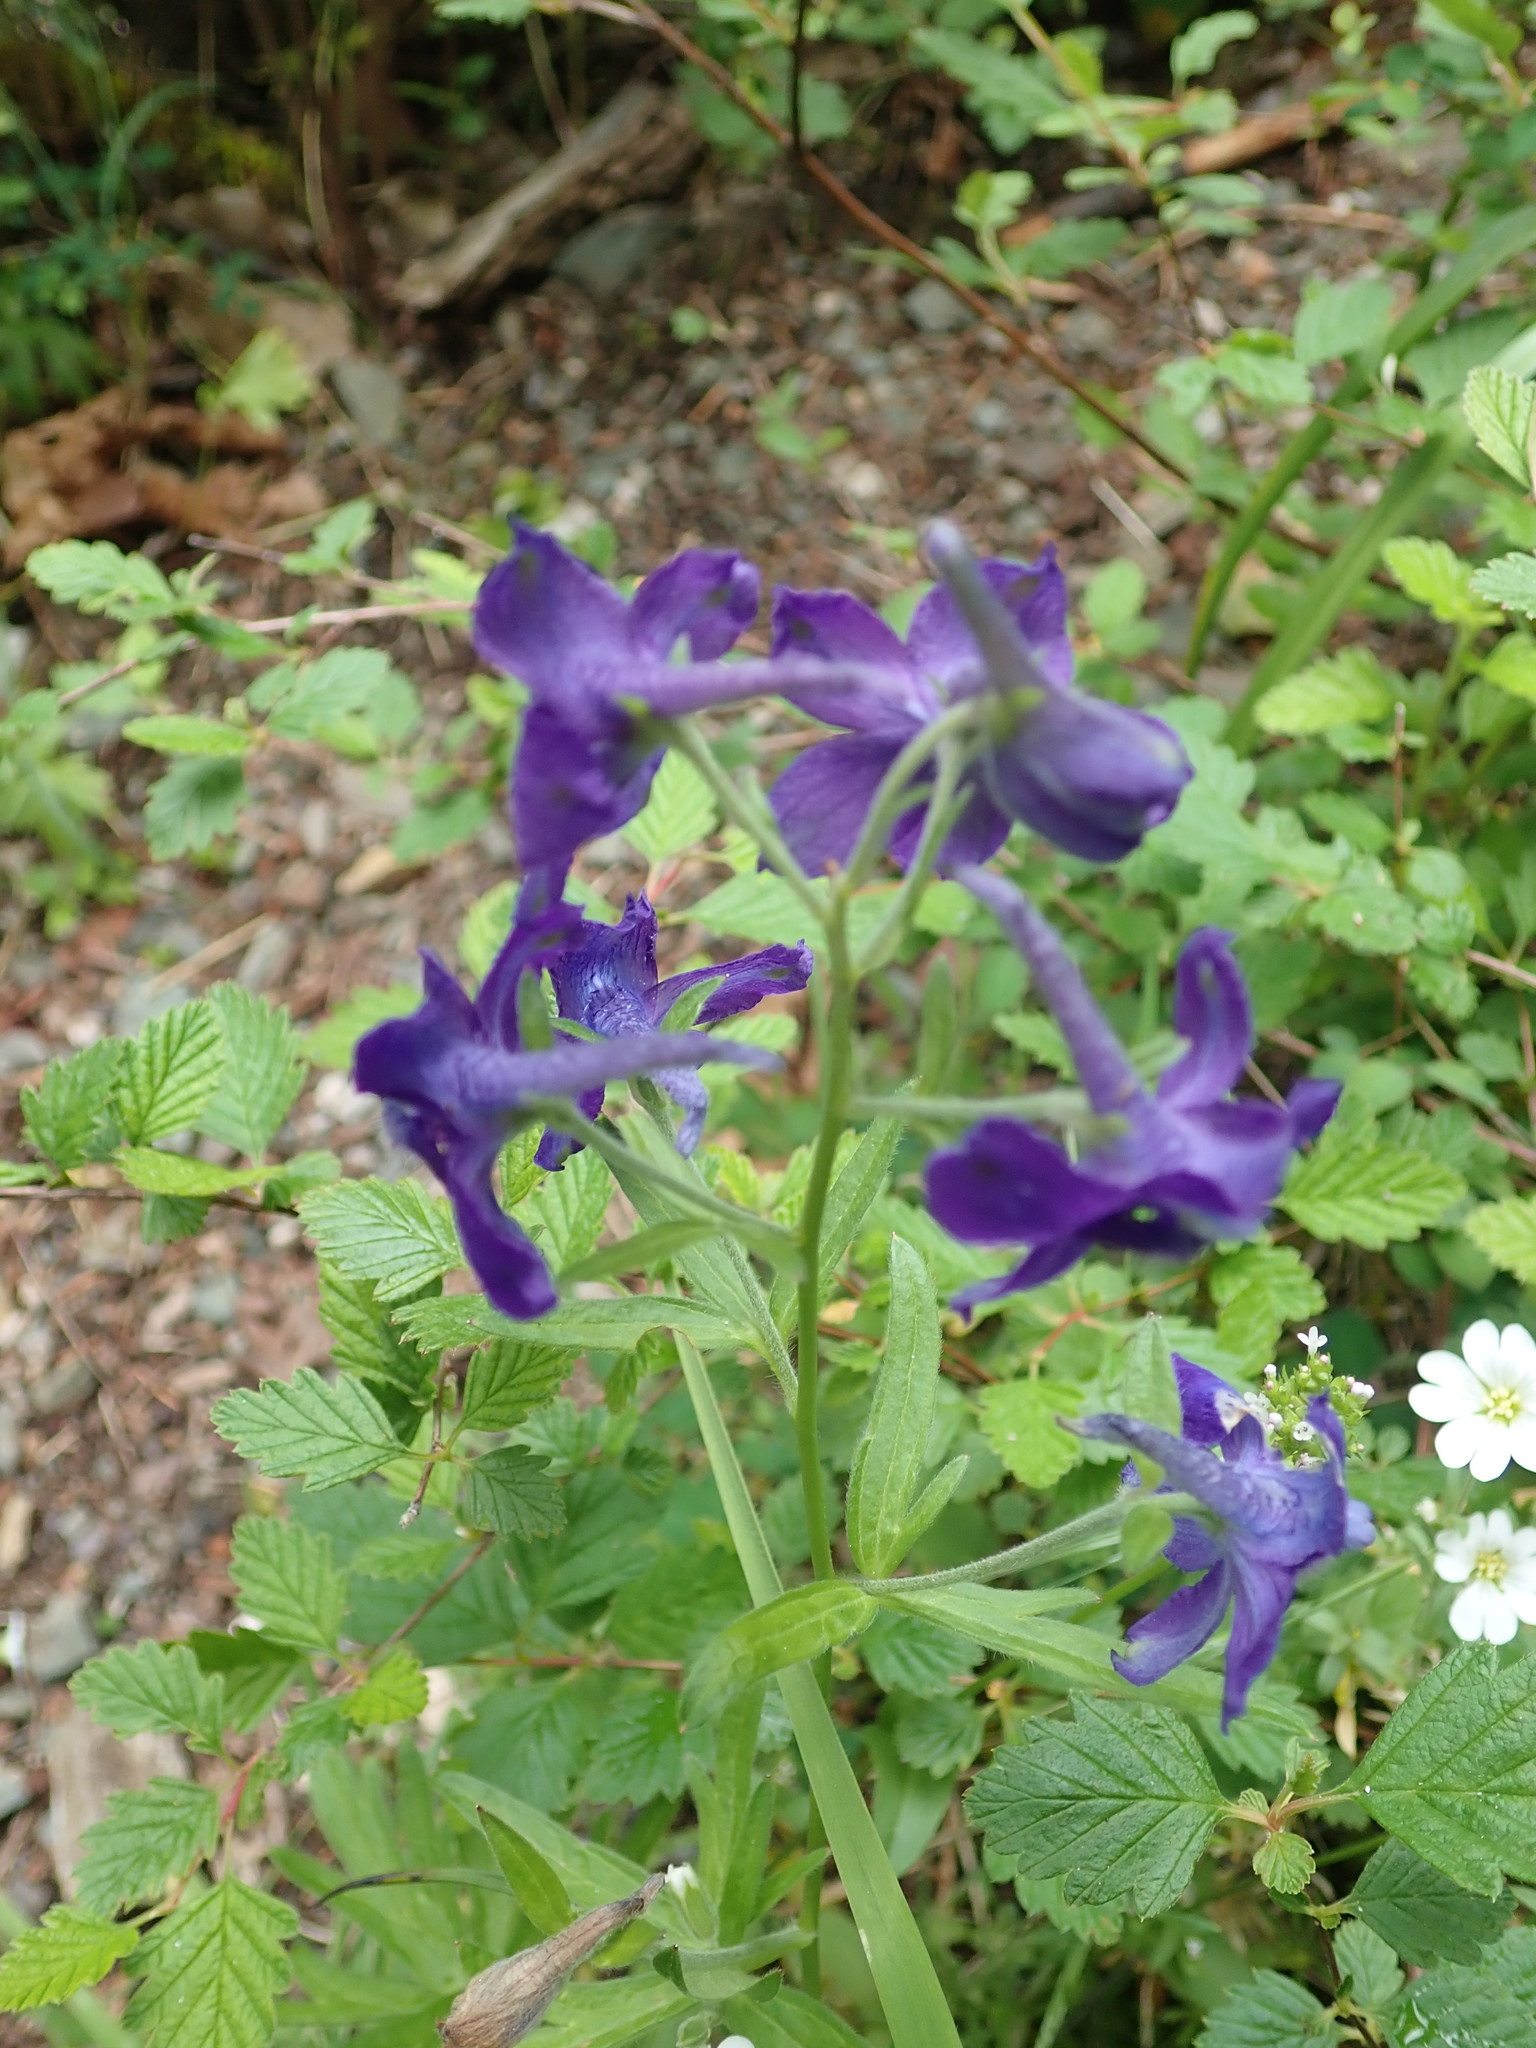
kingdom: Plantae
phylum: Tracheophyta
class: Magnoliopsida
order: Ranunculales
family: Ranunculaceae
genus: Delphinium
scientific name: Delphinium menziesii
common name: Menzies's larkspur
